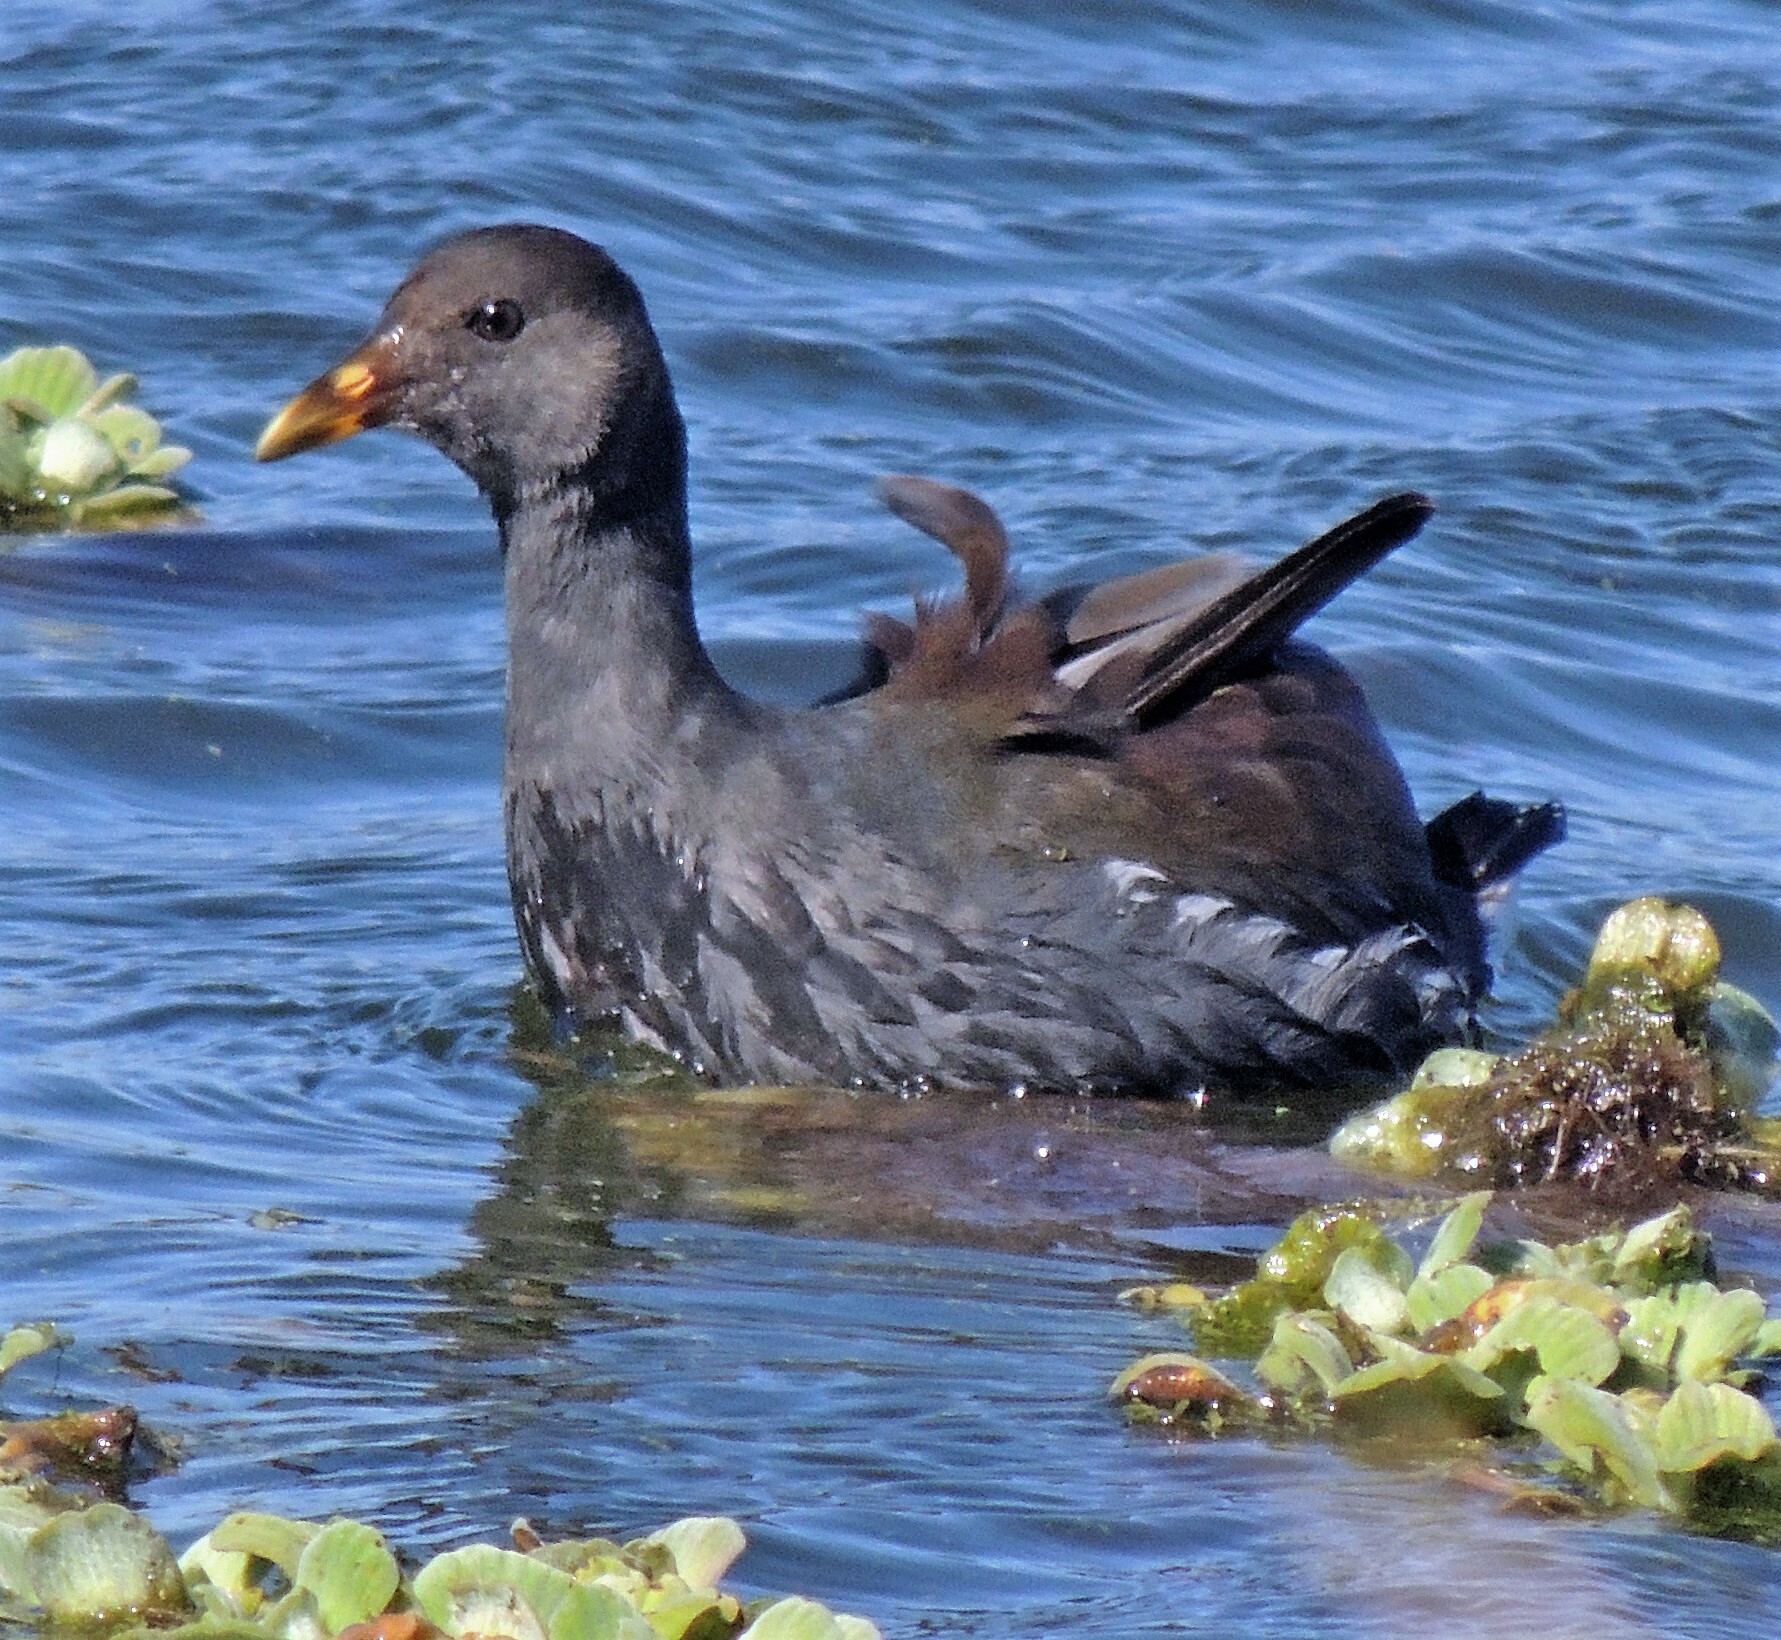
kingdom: Animalia
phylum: Chordata
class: Aves
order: Gruiformes
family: Rallidae
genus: Gallinula
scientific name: Gallinula chloropus
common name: Common moorhen
